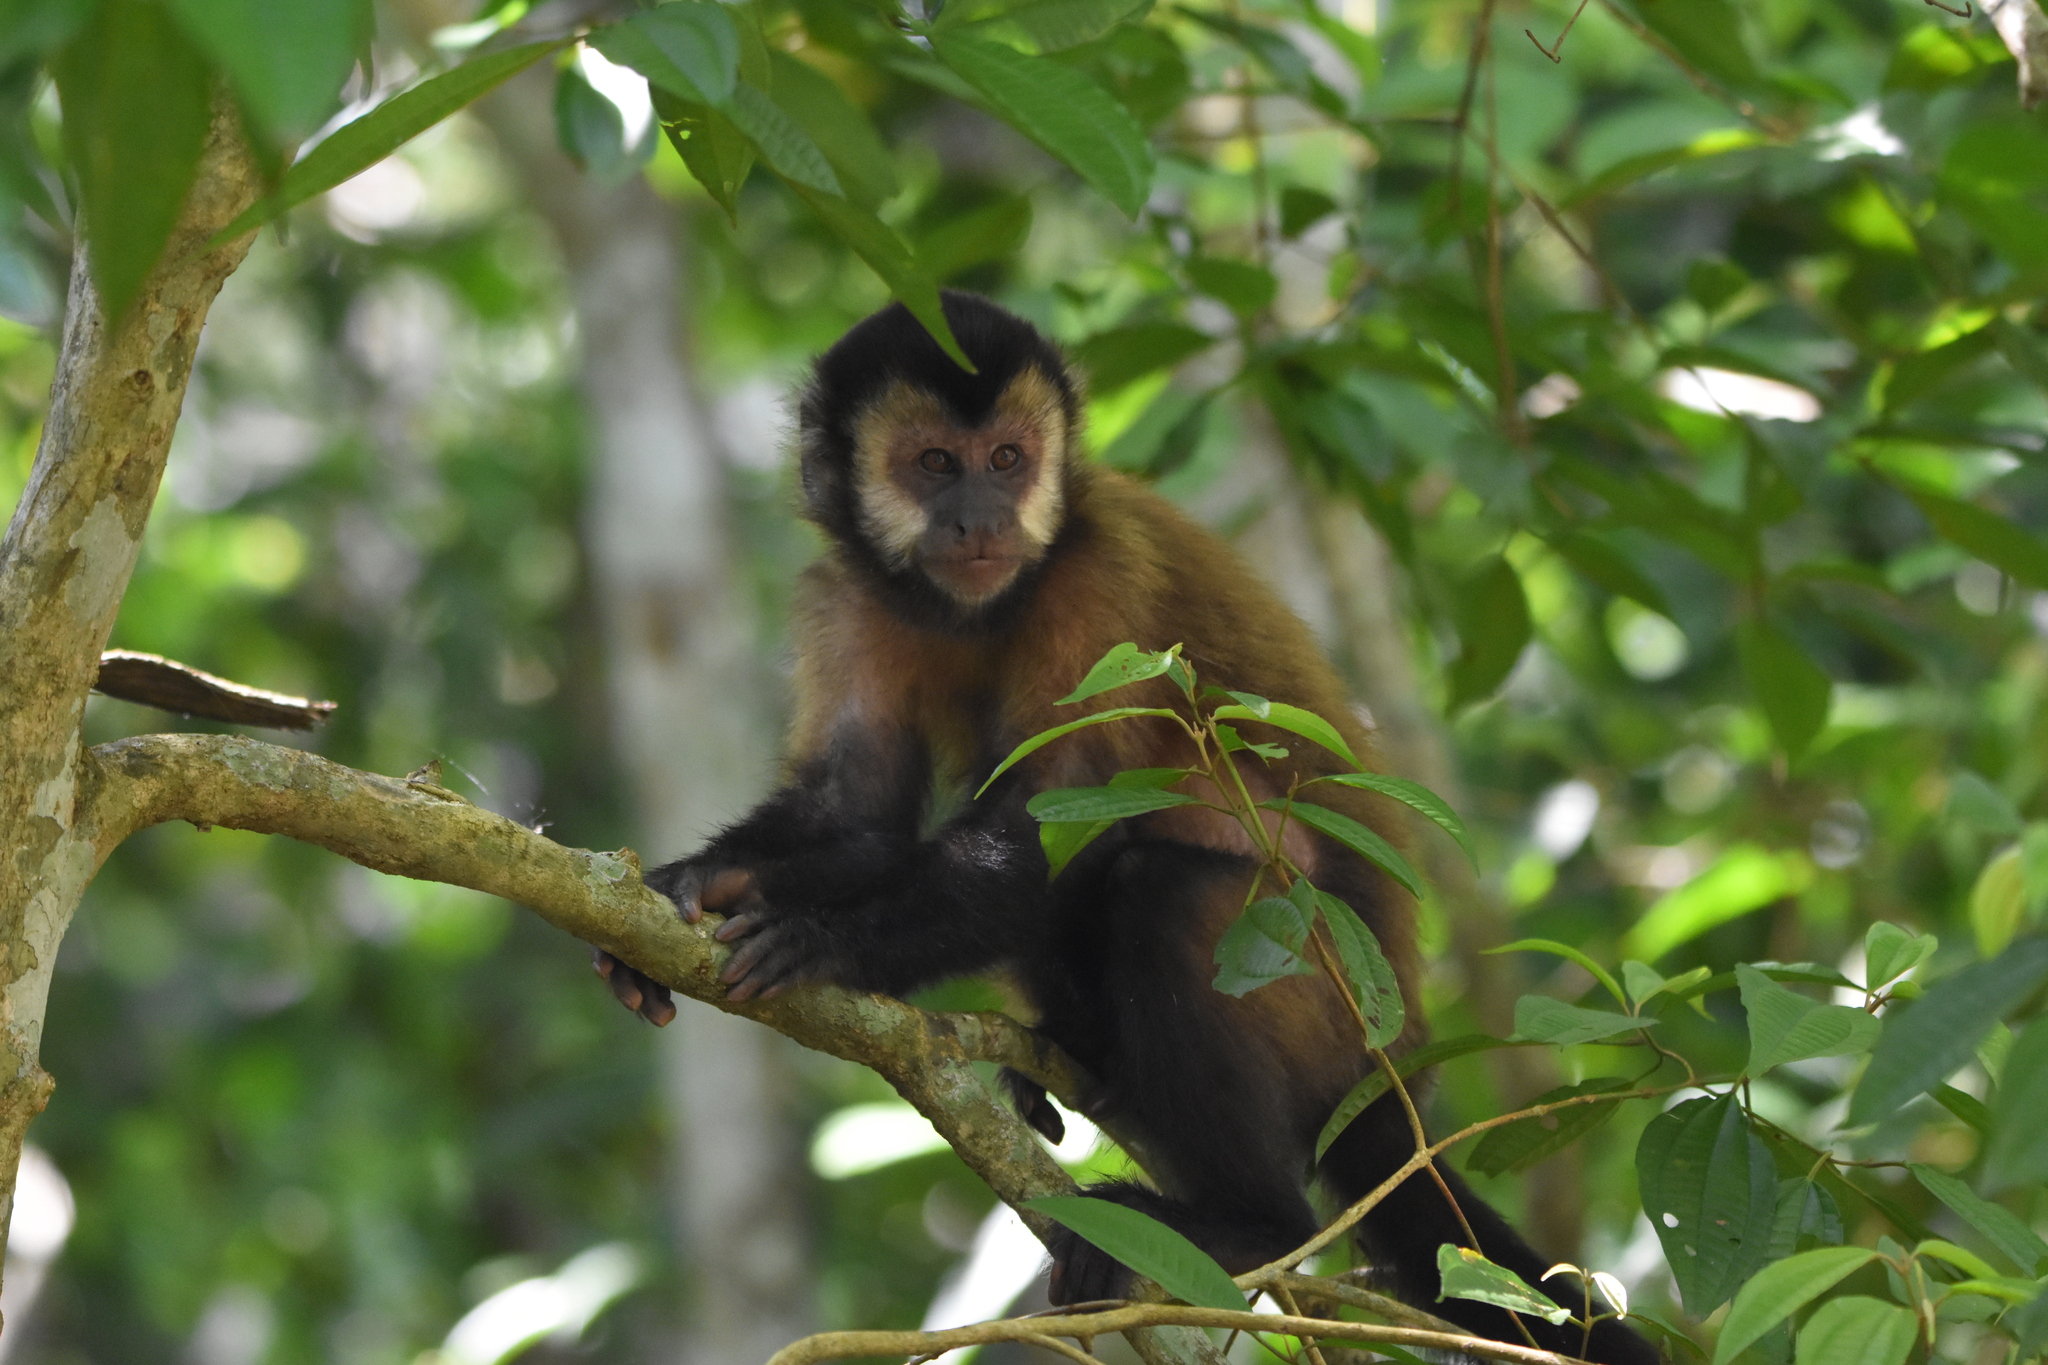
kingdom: Animalia
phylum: Chordata
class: Mammalia
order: Primates
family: Cebidae
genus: Sapajus
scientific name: Sapajus nigritus
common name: Black capuchin
